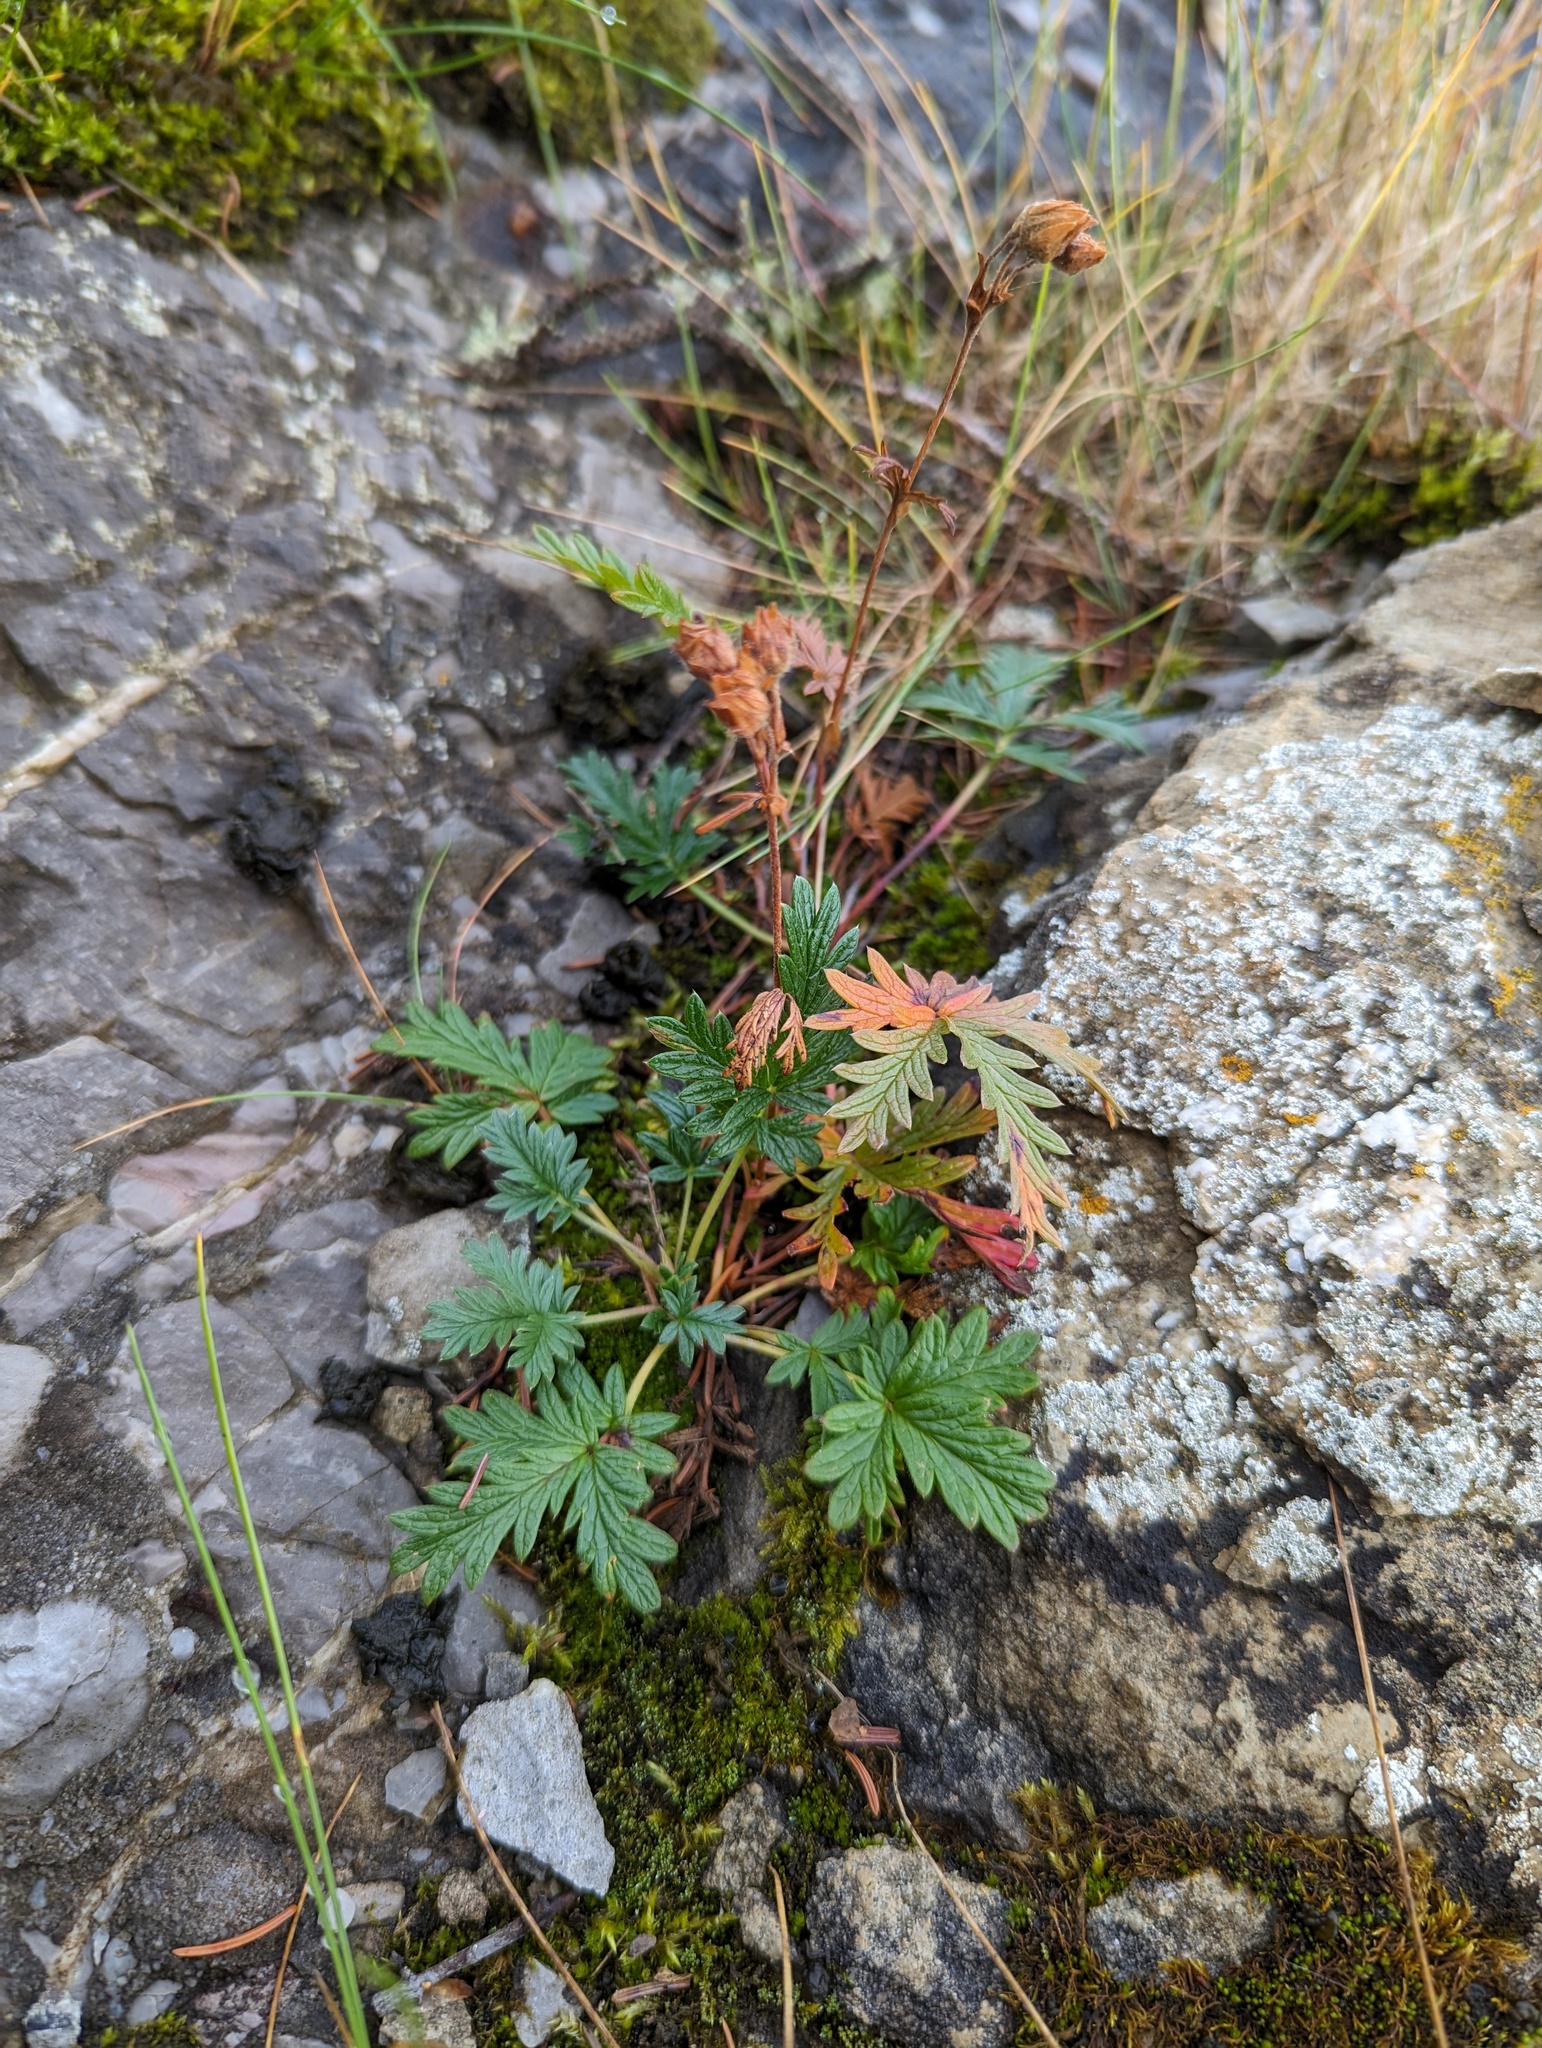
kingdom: Plantae
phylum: Tracheophyta
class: Magnoliopsida
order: Rosales
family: Rosaceae
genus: Potentilla
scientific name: Potentilla litoralis
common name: Coast cinquefoil
